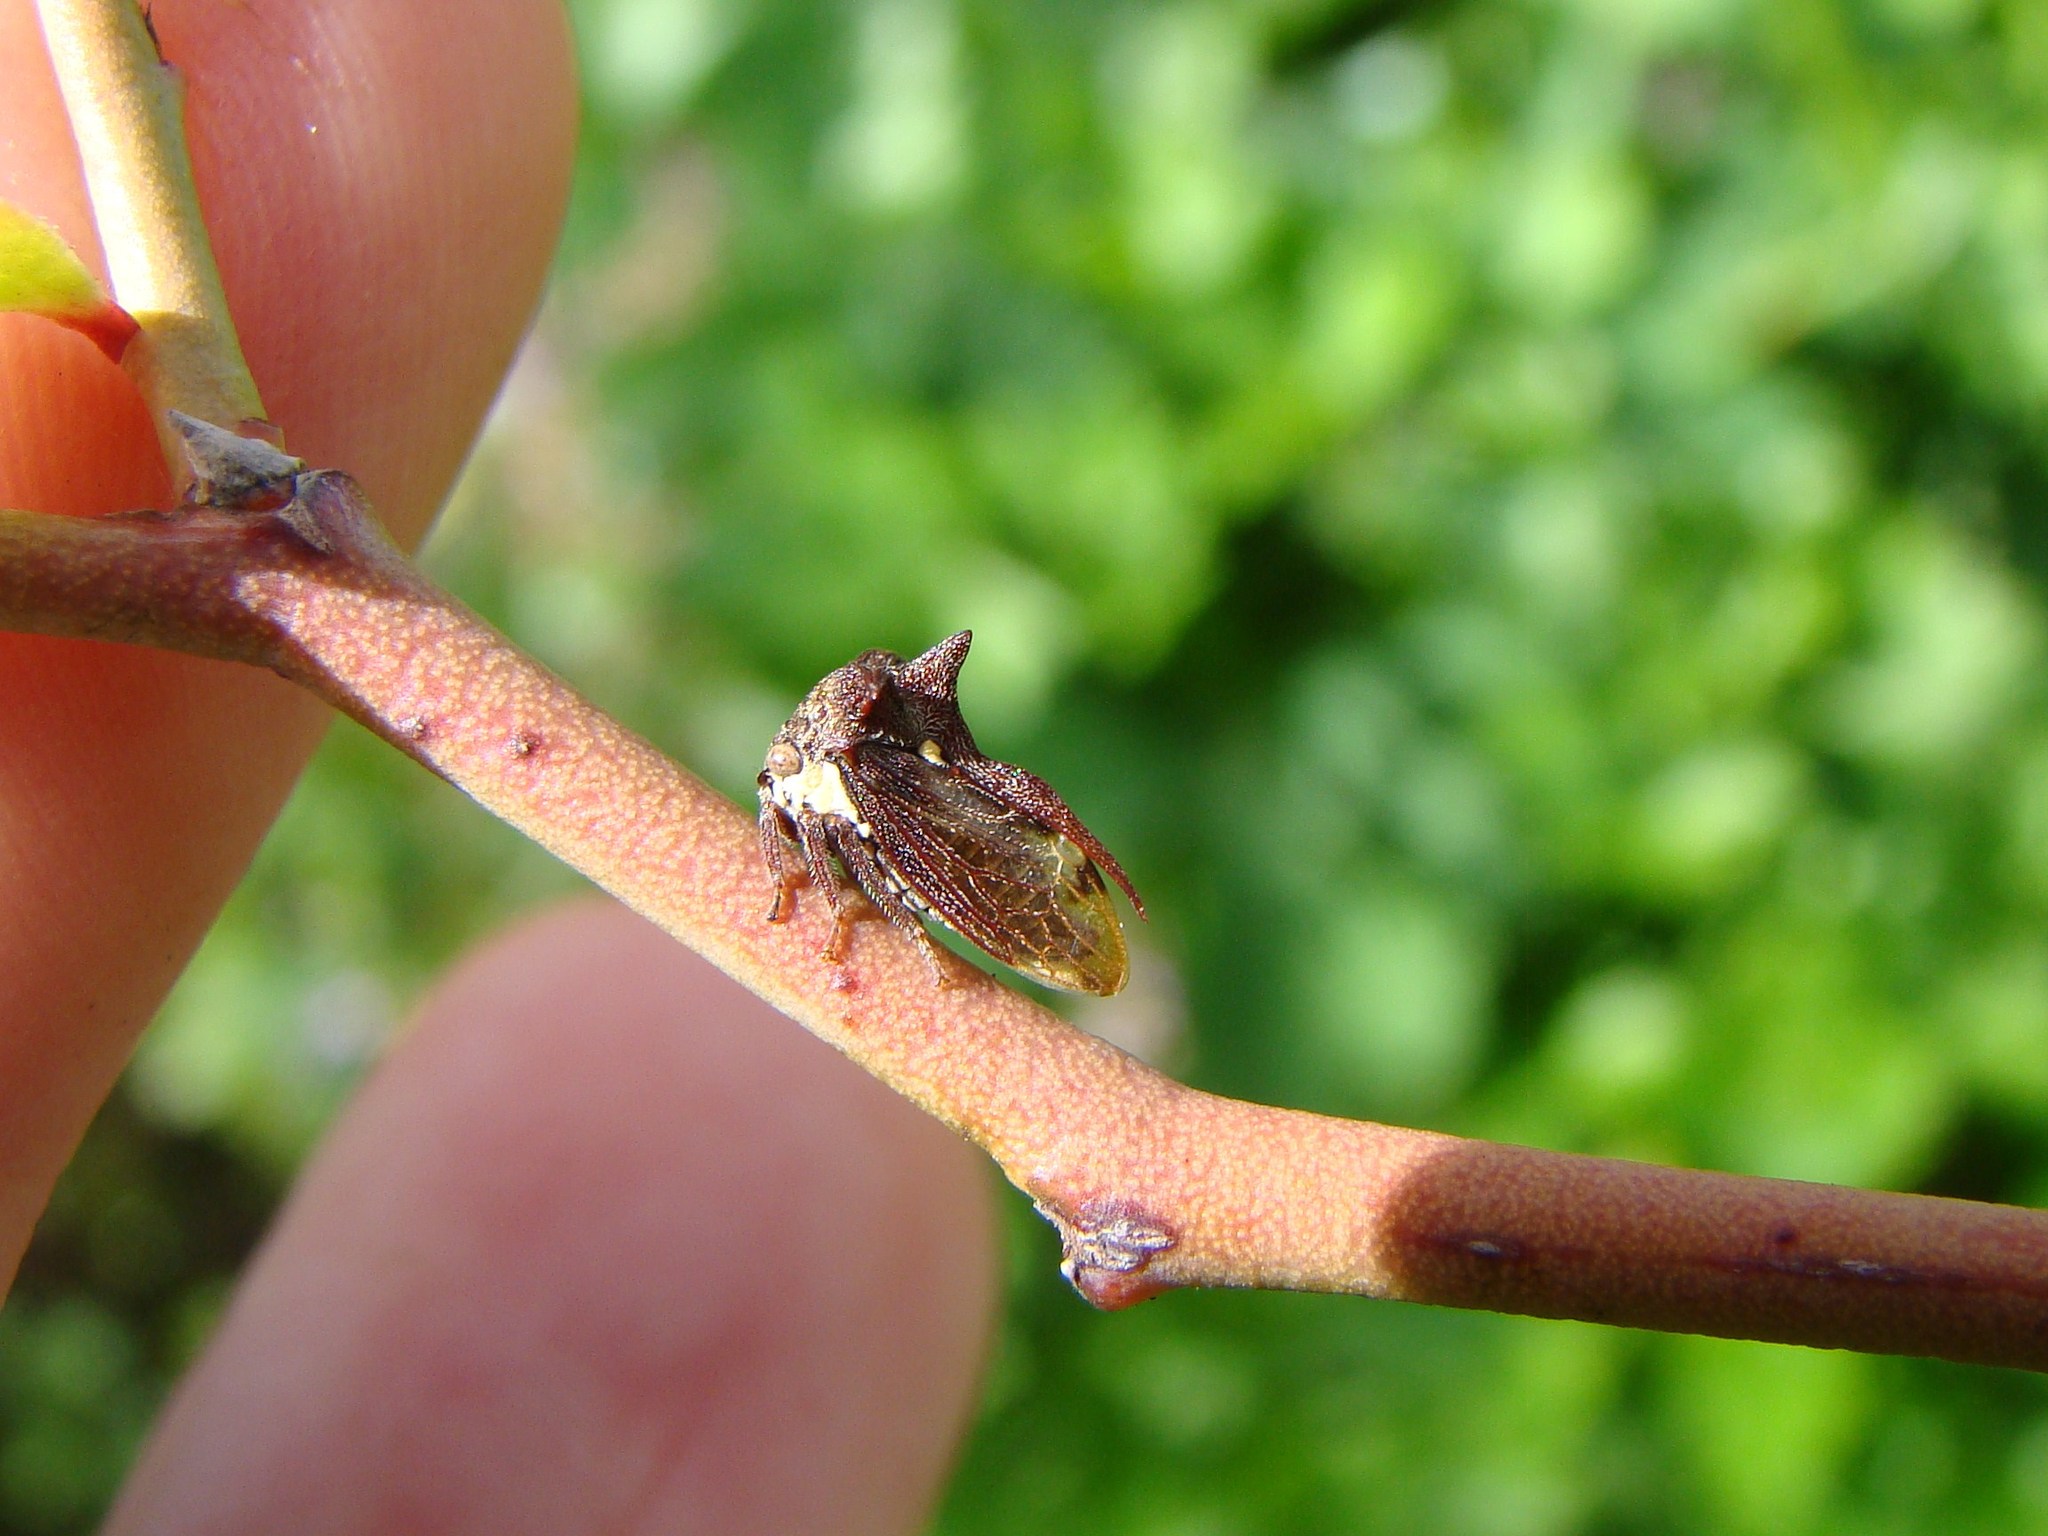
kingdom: Animalia
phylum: Arthropoda
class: Insecta
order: Hemiptera
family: Membracidae
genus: Acanthuchus
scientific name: Acanthuchus trispinifer
